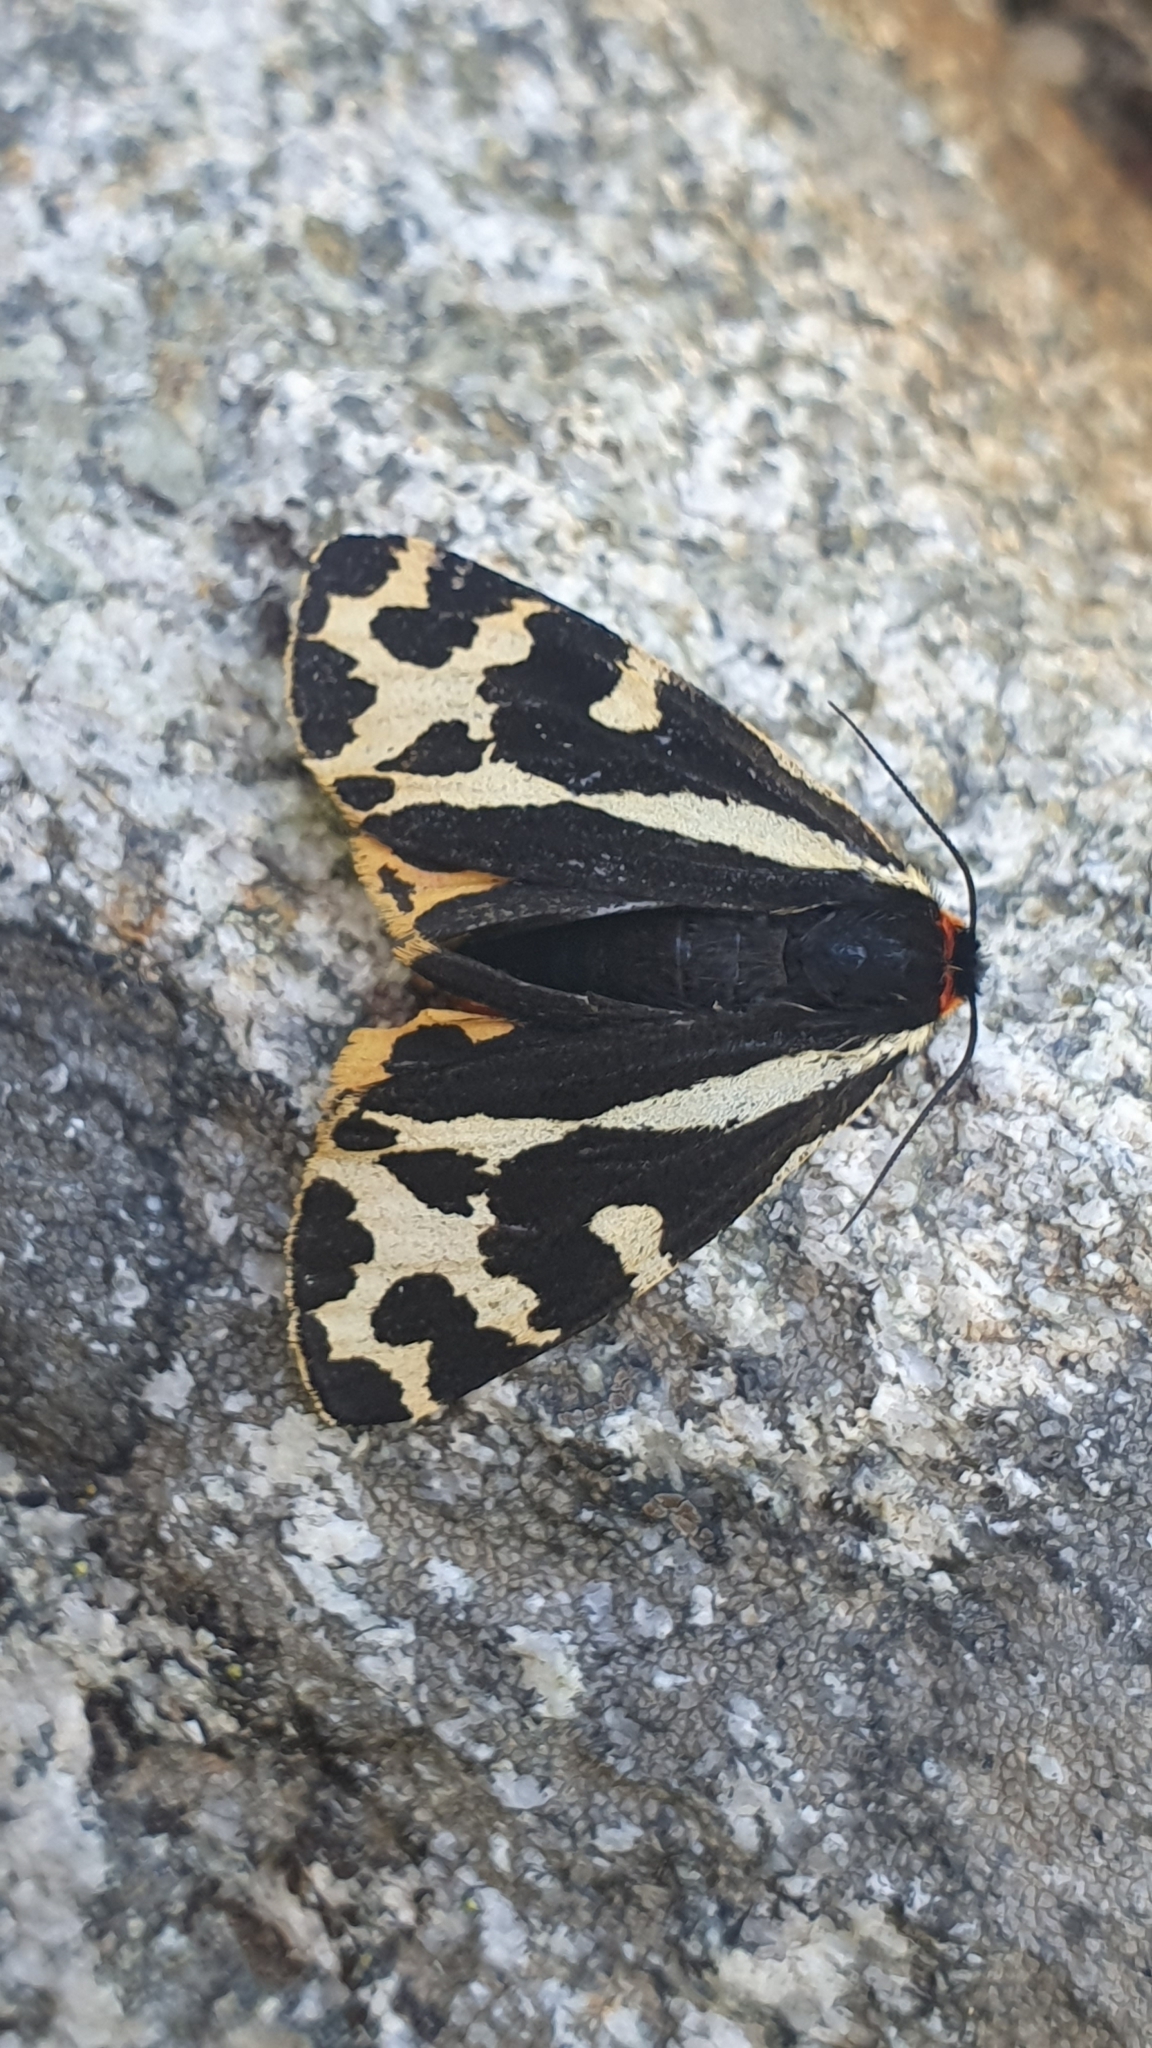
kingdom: Animalia
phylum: Arthropoda
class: Insecta
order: Lepidoptera
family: Erebidae
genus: Parasemia
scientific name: Parasemia plantaginis
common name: Wood tiger
